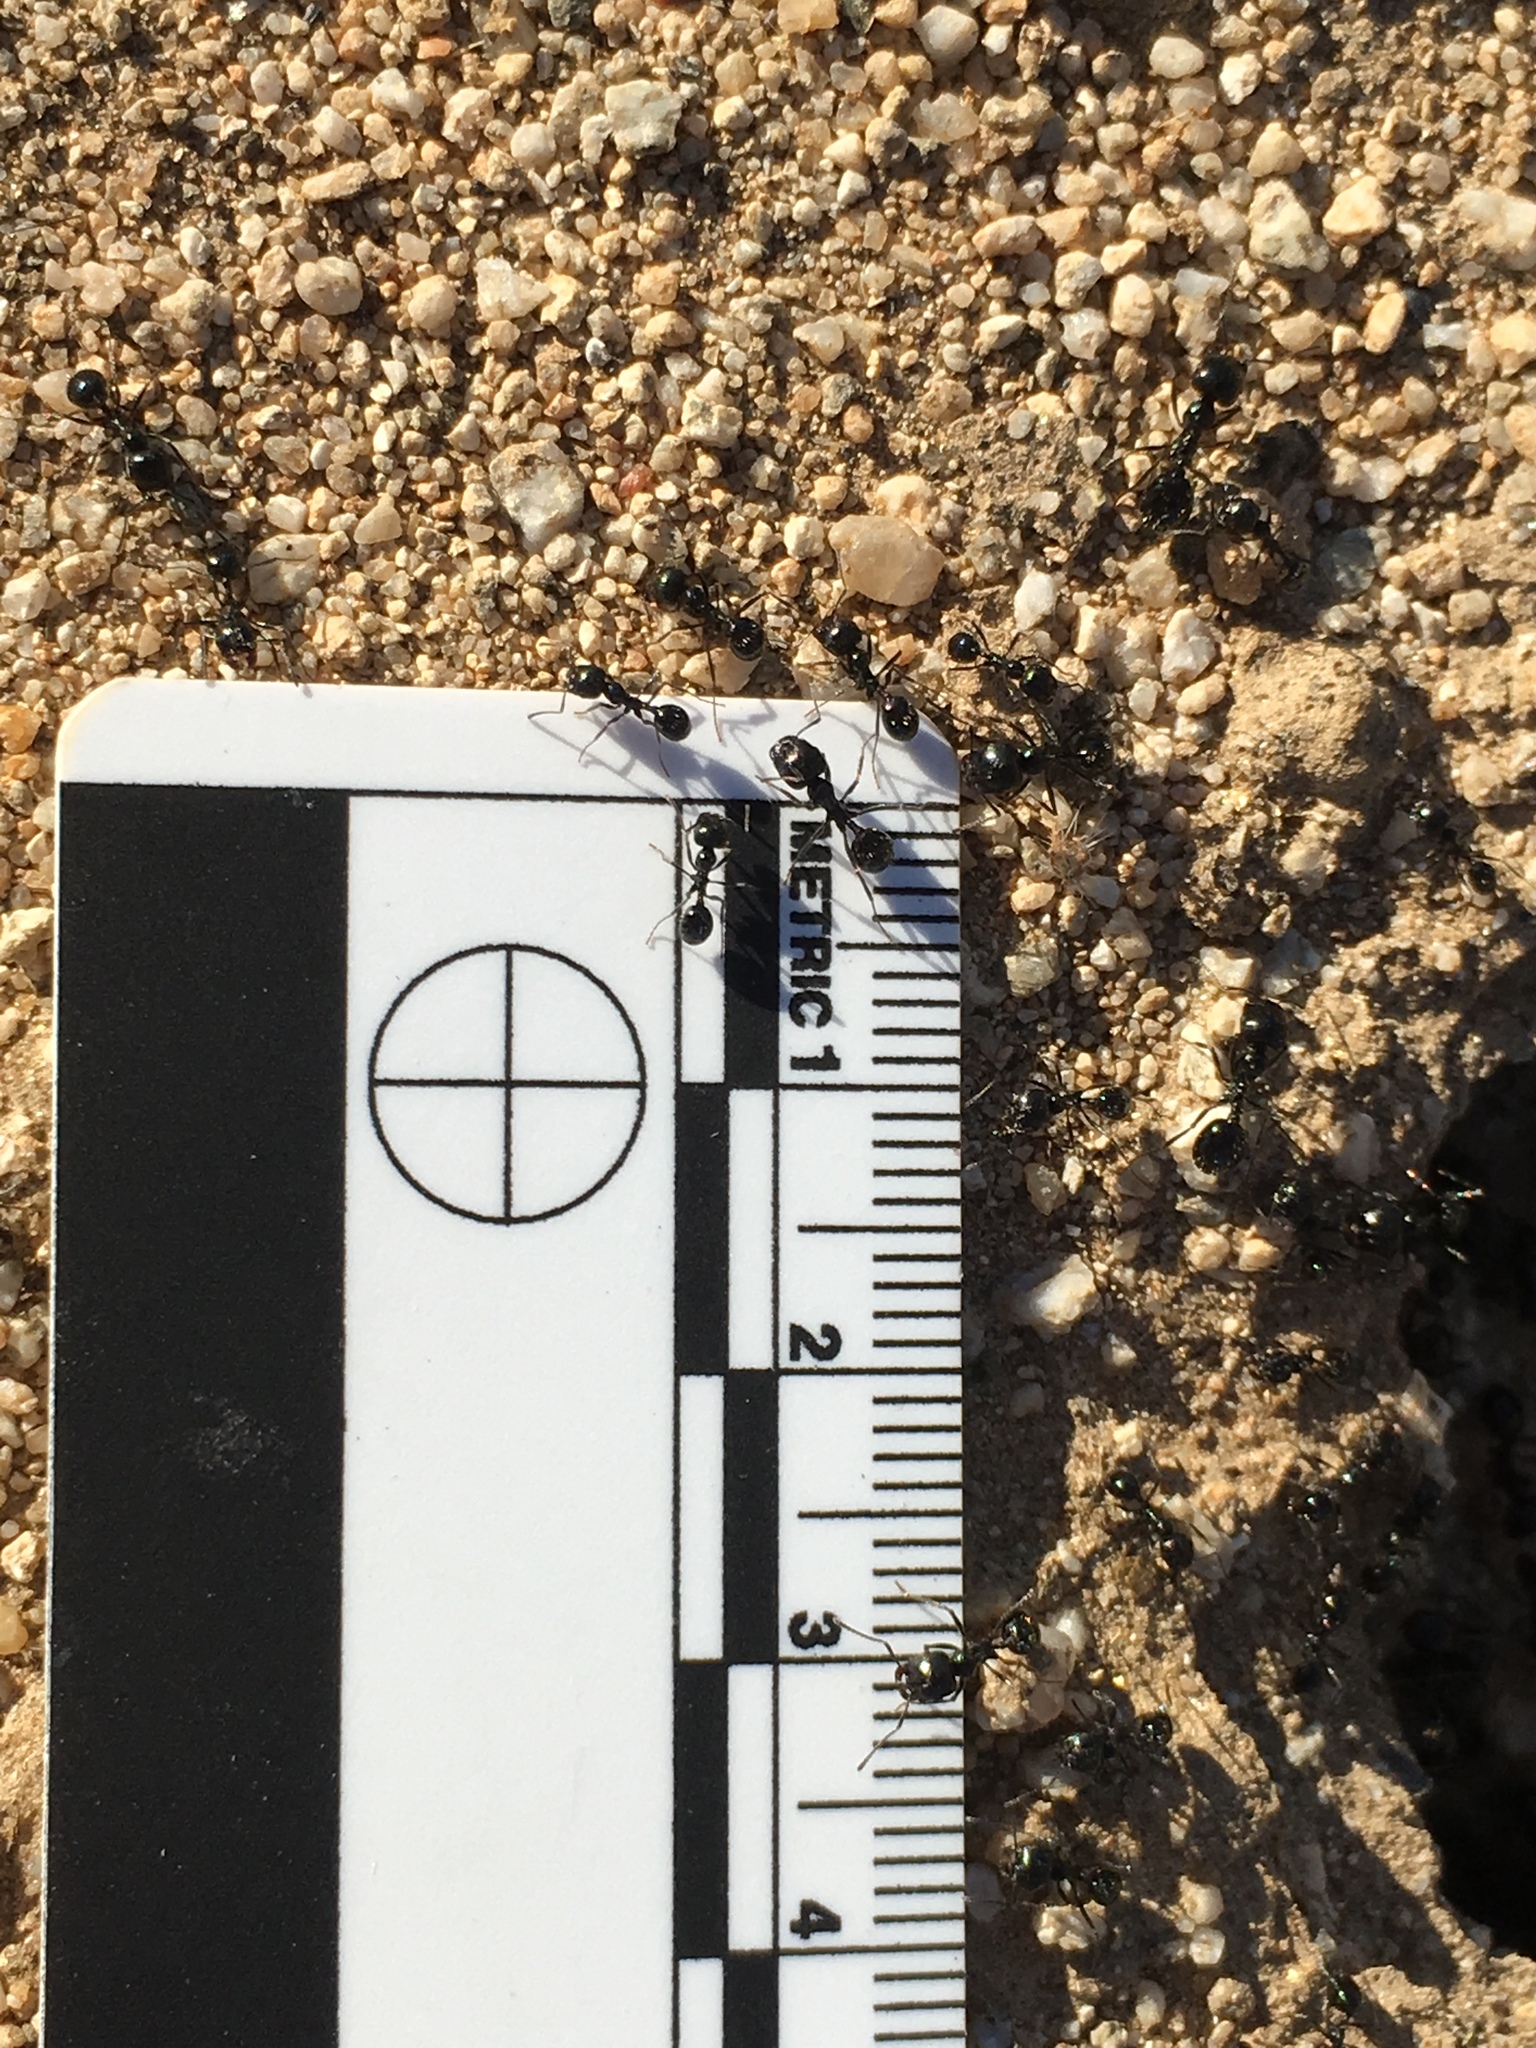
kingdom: Animalia
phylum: Arthropoda
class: Insecta
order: Hymenoptera
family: Formicidae
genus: Messor
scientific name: Messor pergandei
